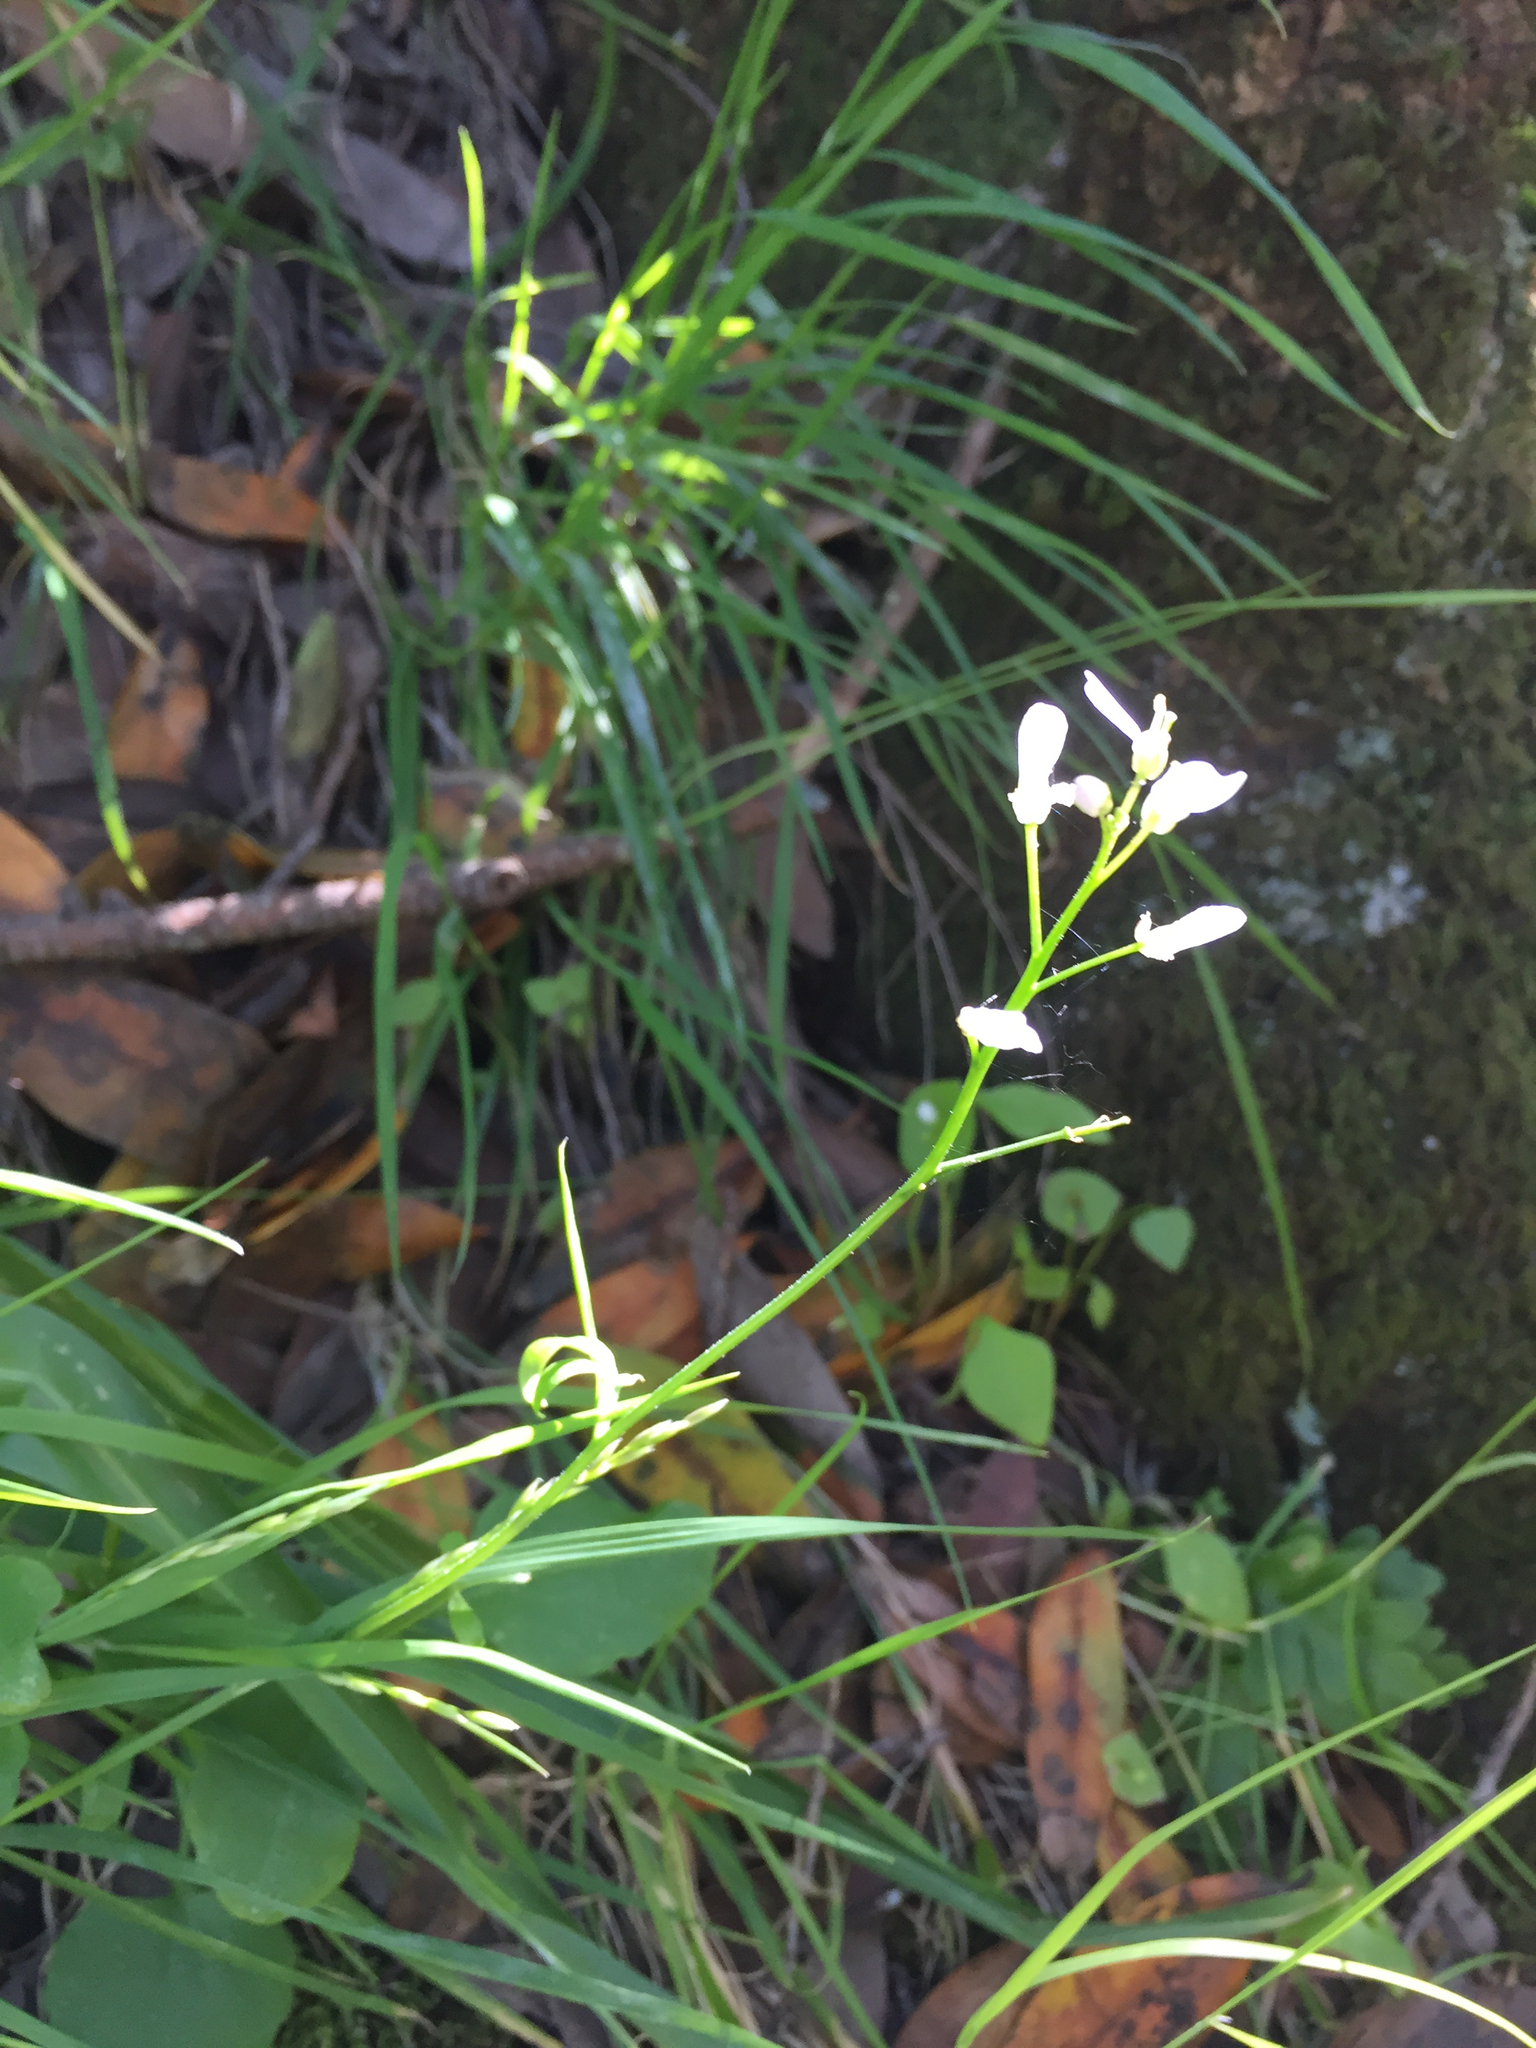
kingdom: Plantae
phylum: Tracheophyta
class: Magnoliopsida
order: Brassicales
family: Brassicaceae
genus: Cardamine
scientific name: Cardamine californica
